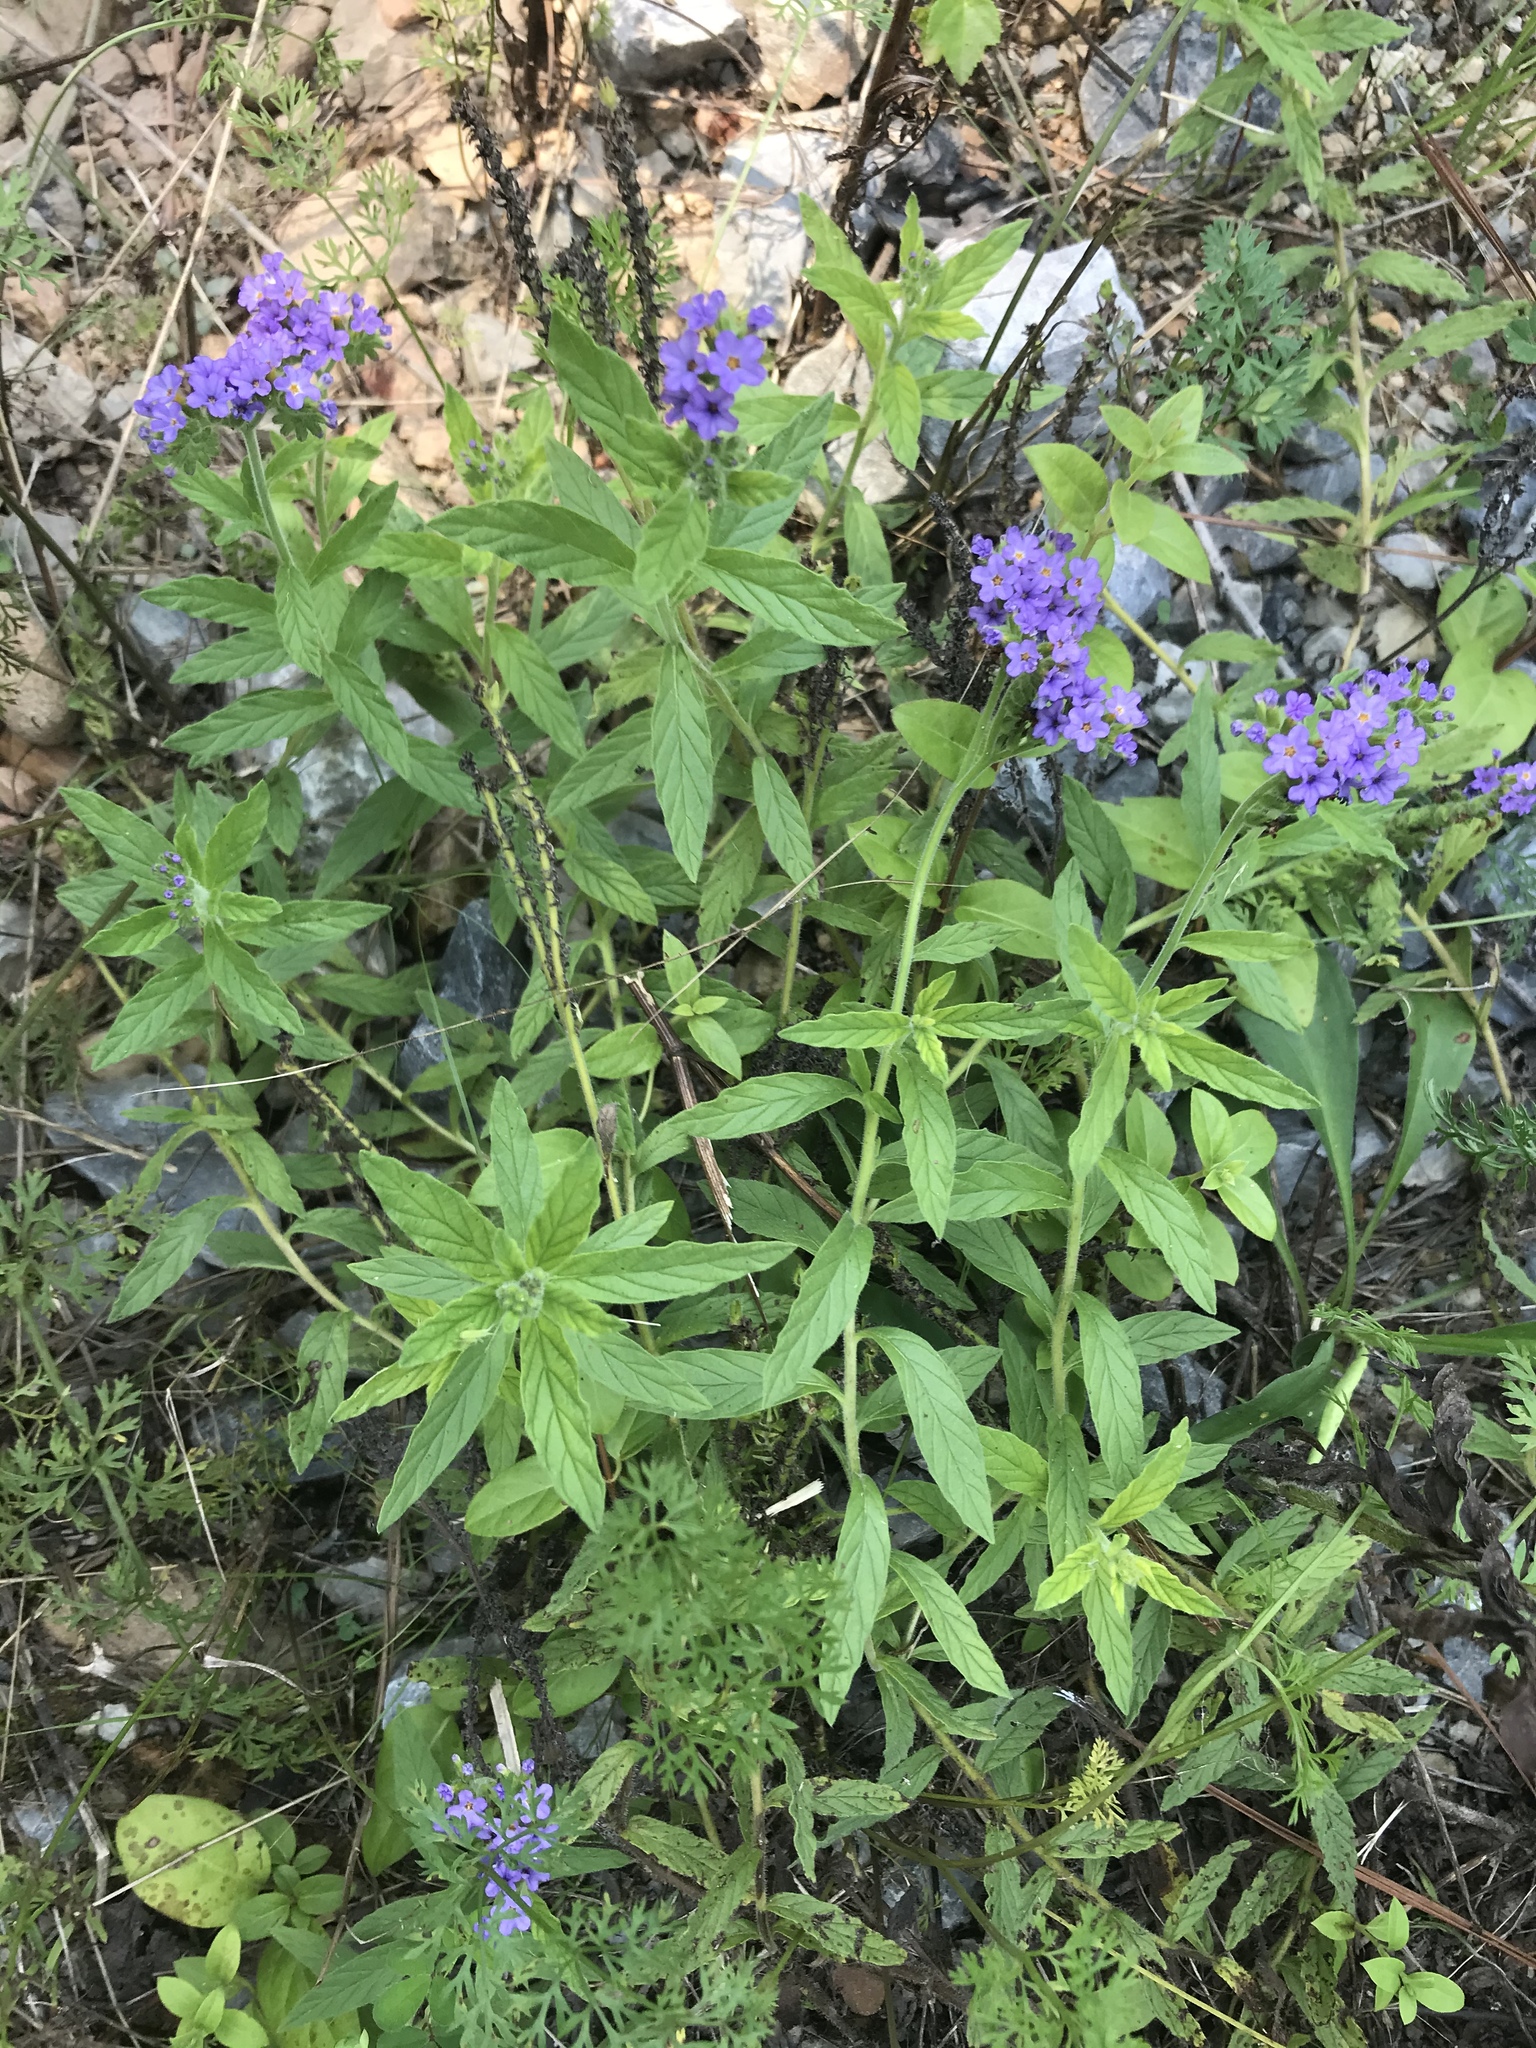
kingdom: Plantae
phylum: Tracheophyta
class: Magnoliopsida
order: Boraginales
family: Heliotropiaceae
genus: Heliotropium
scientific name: Heliotropium amplexicaule
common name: Clasping heliotrope
